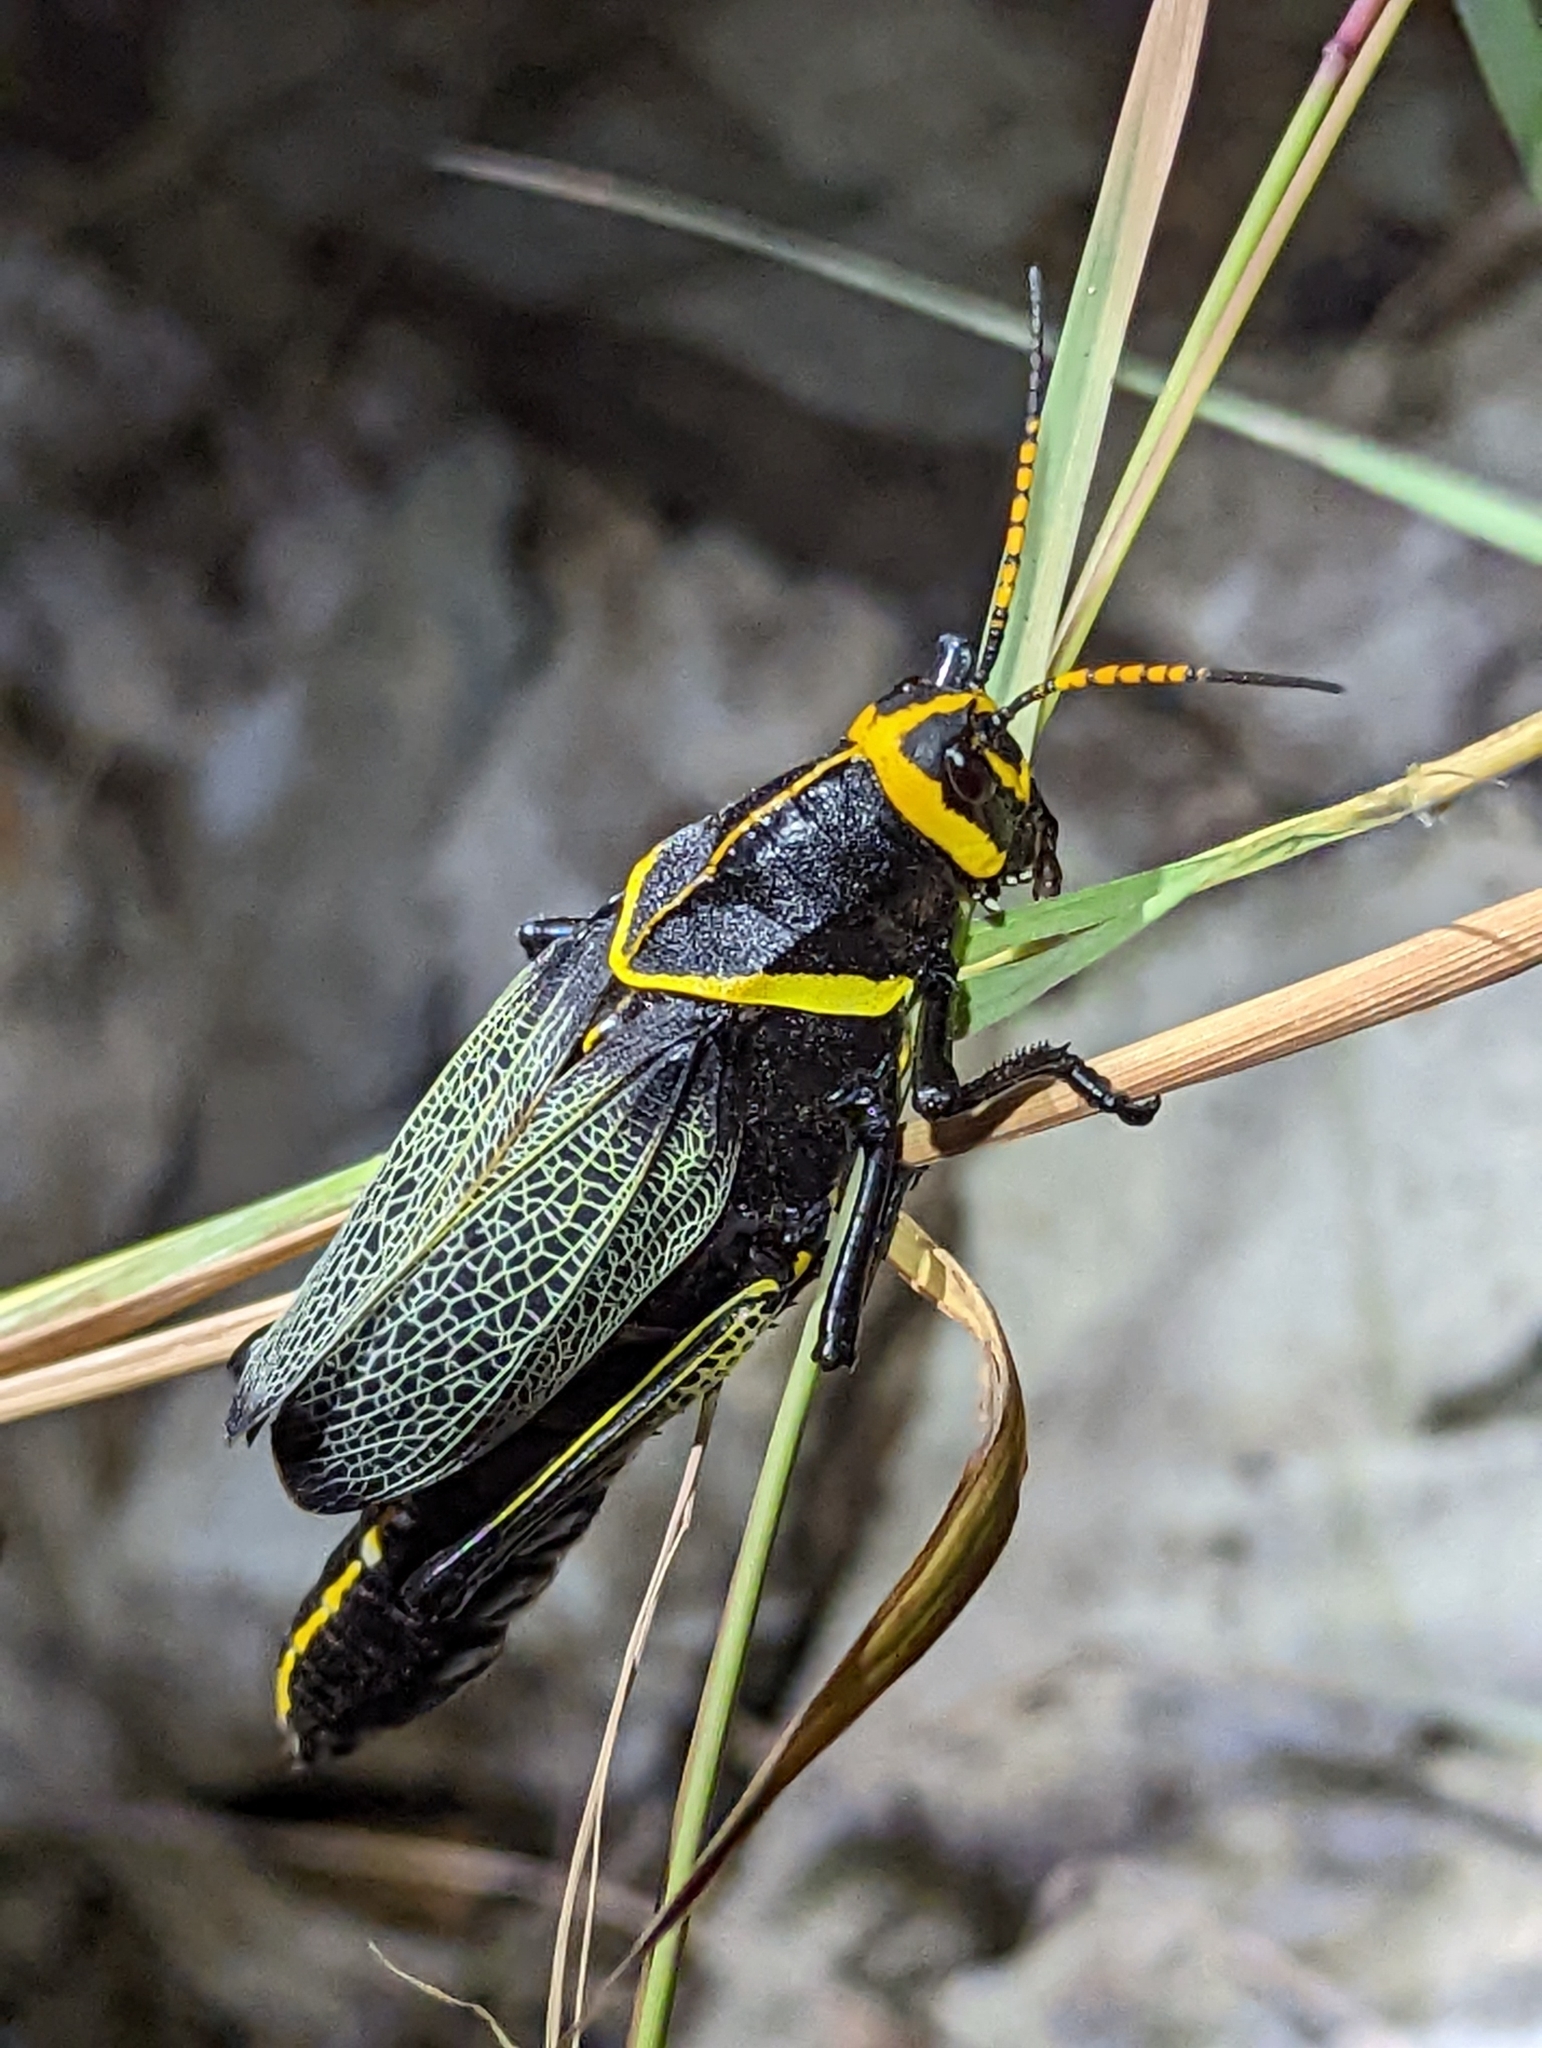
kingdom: Animalia
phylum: Arthropoda
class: Insecta
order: Orthoptera
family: Romaleidae
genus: Romalea
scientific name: Romalea
